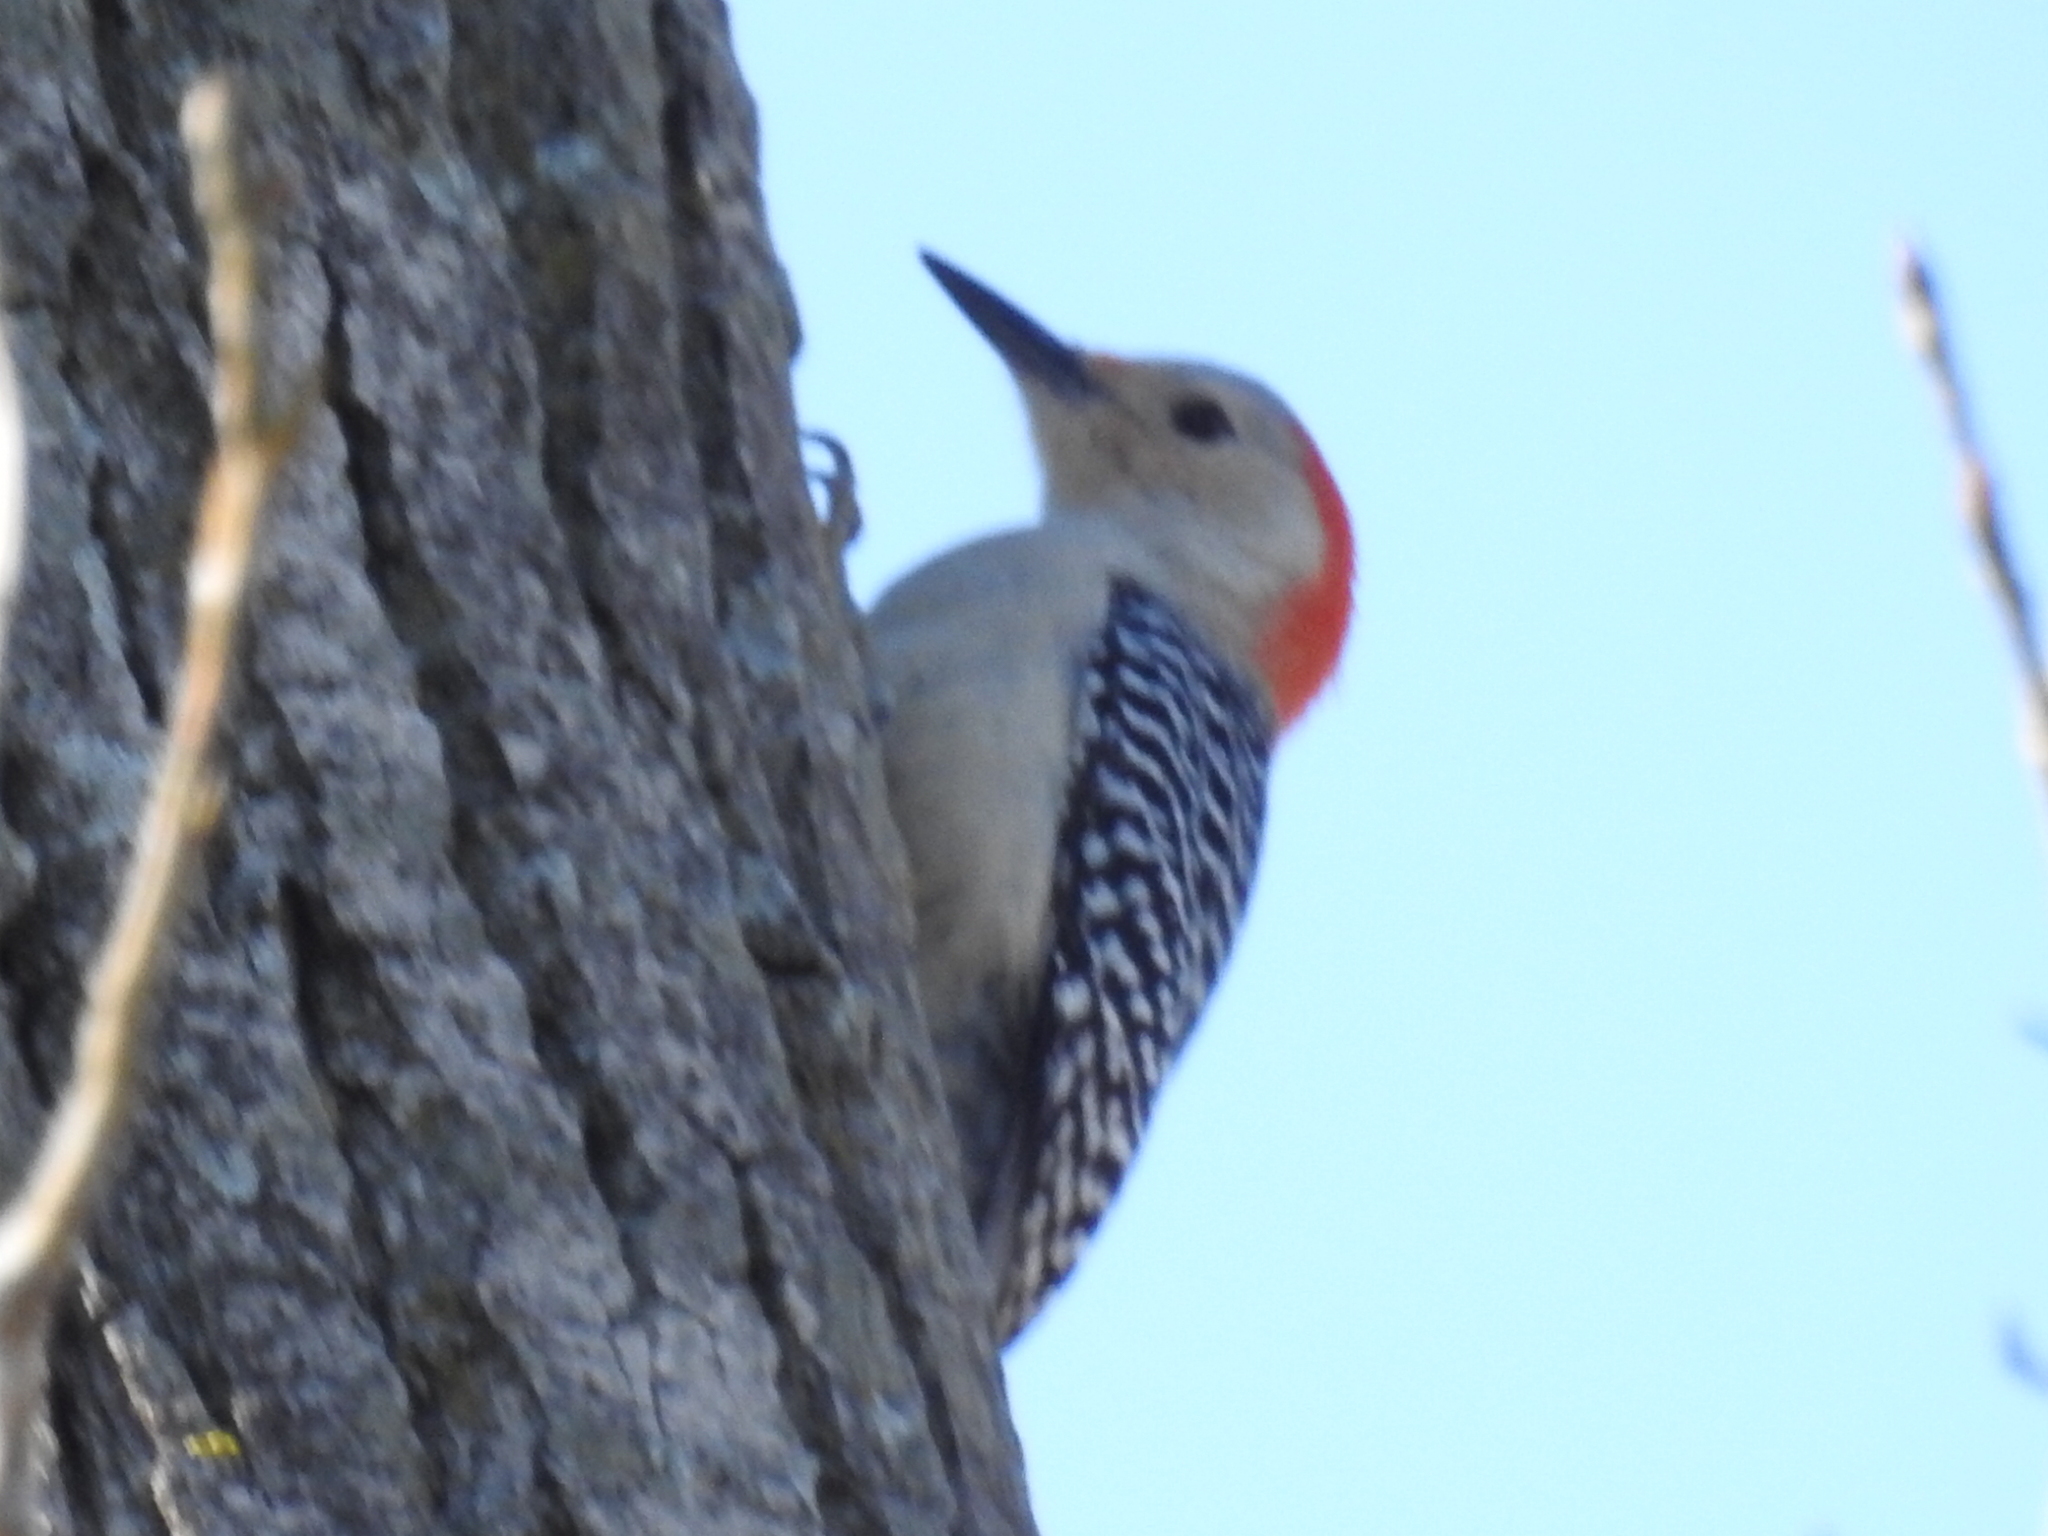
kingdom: Animalia
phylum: Chordata
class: Aves
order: Piciformes
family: Picidae
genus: Melanerpes
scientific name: Melanerpes carolinus
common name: Red-bellied woodpecker
